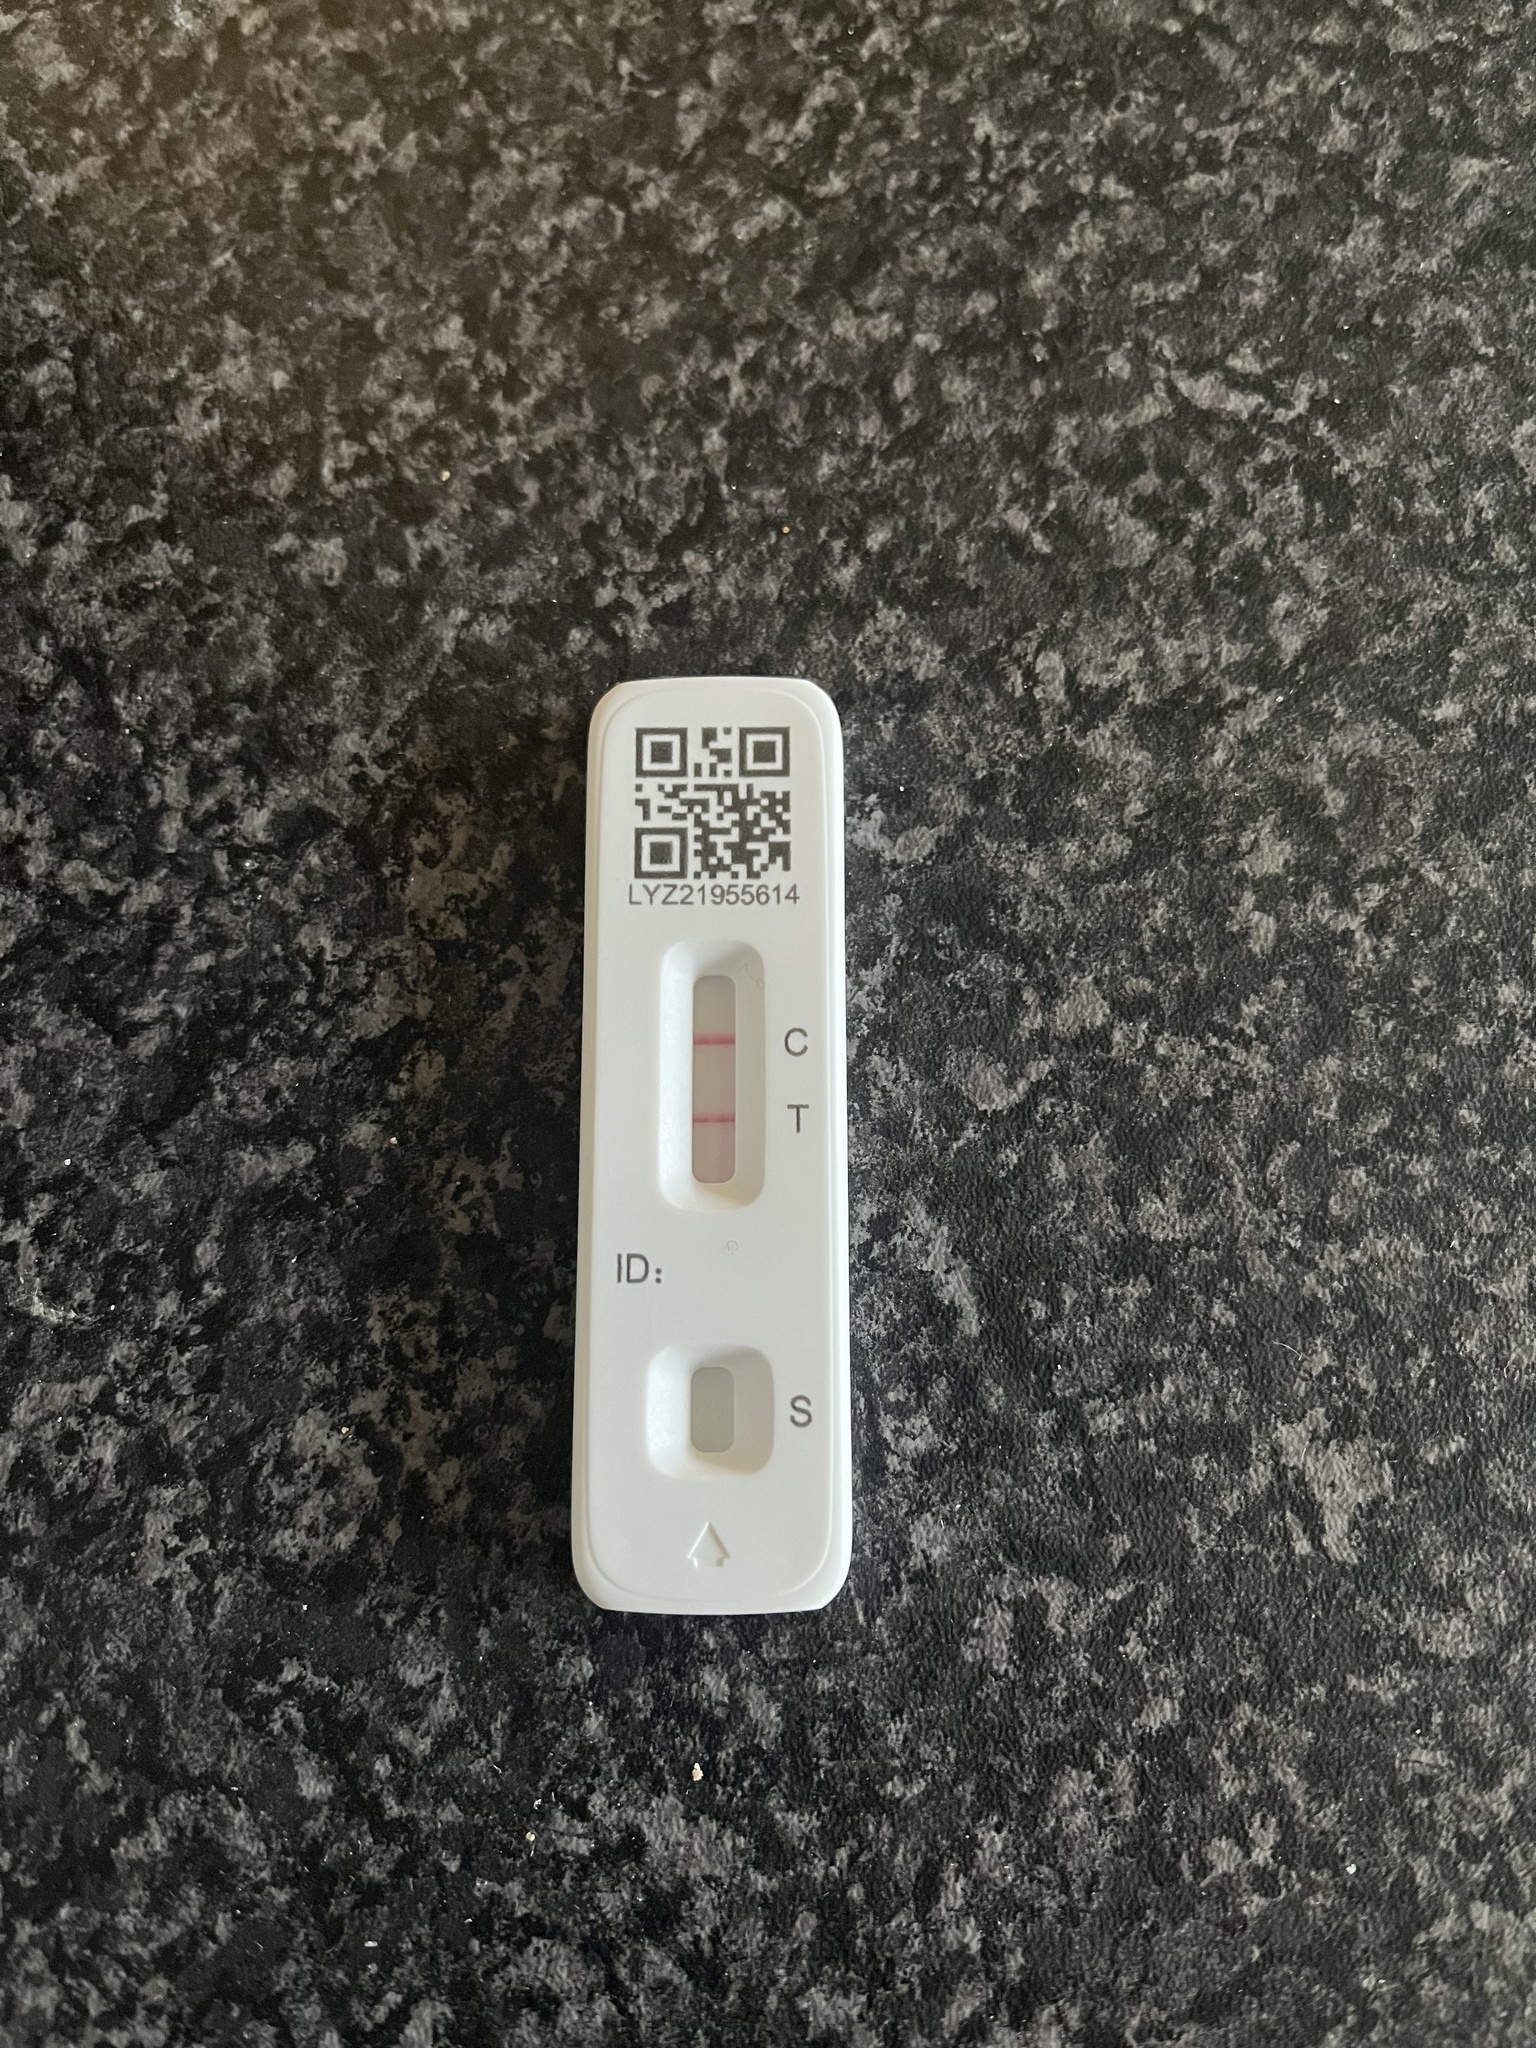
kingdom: Viruses
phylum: Pisuviricota
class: Pisoniviricetes
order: Nidovirales
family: Coronaviridae
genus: Betacoronavirus
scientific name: Betacoronavirus Severe acute respiratory syndrome-related coronavirus
